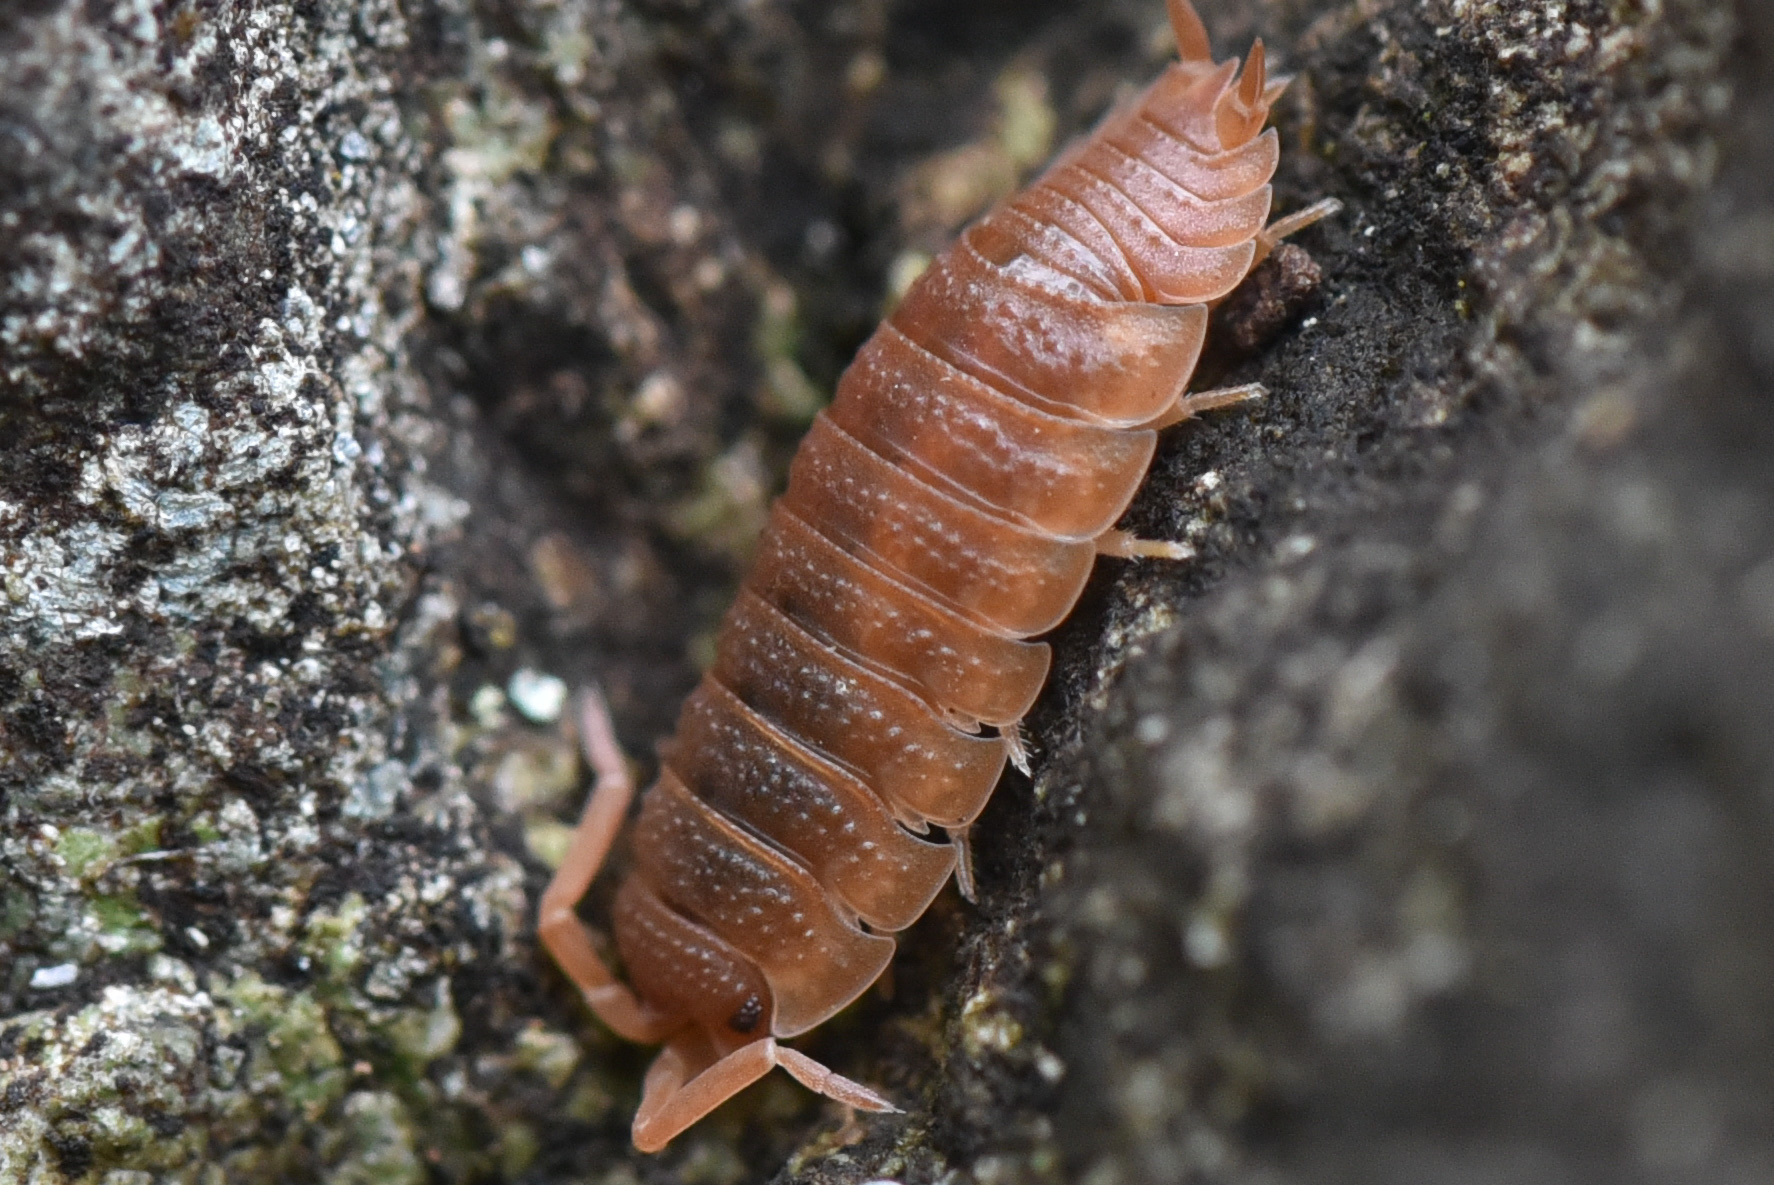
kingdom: Animalia
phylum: Arthropoda
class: Malacostraca
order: Isopoda
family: Porcellionidae
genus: Porcellio
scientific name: Porcellio scaber
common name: Common rough woodlouse
